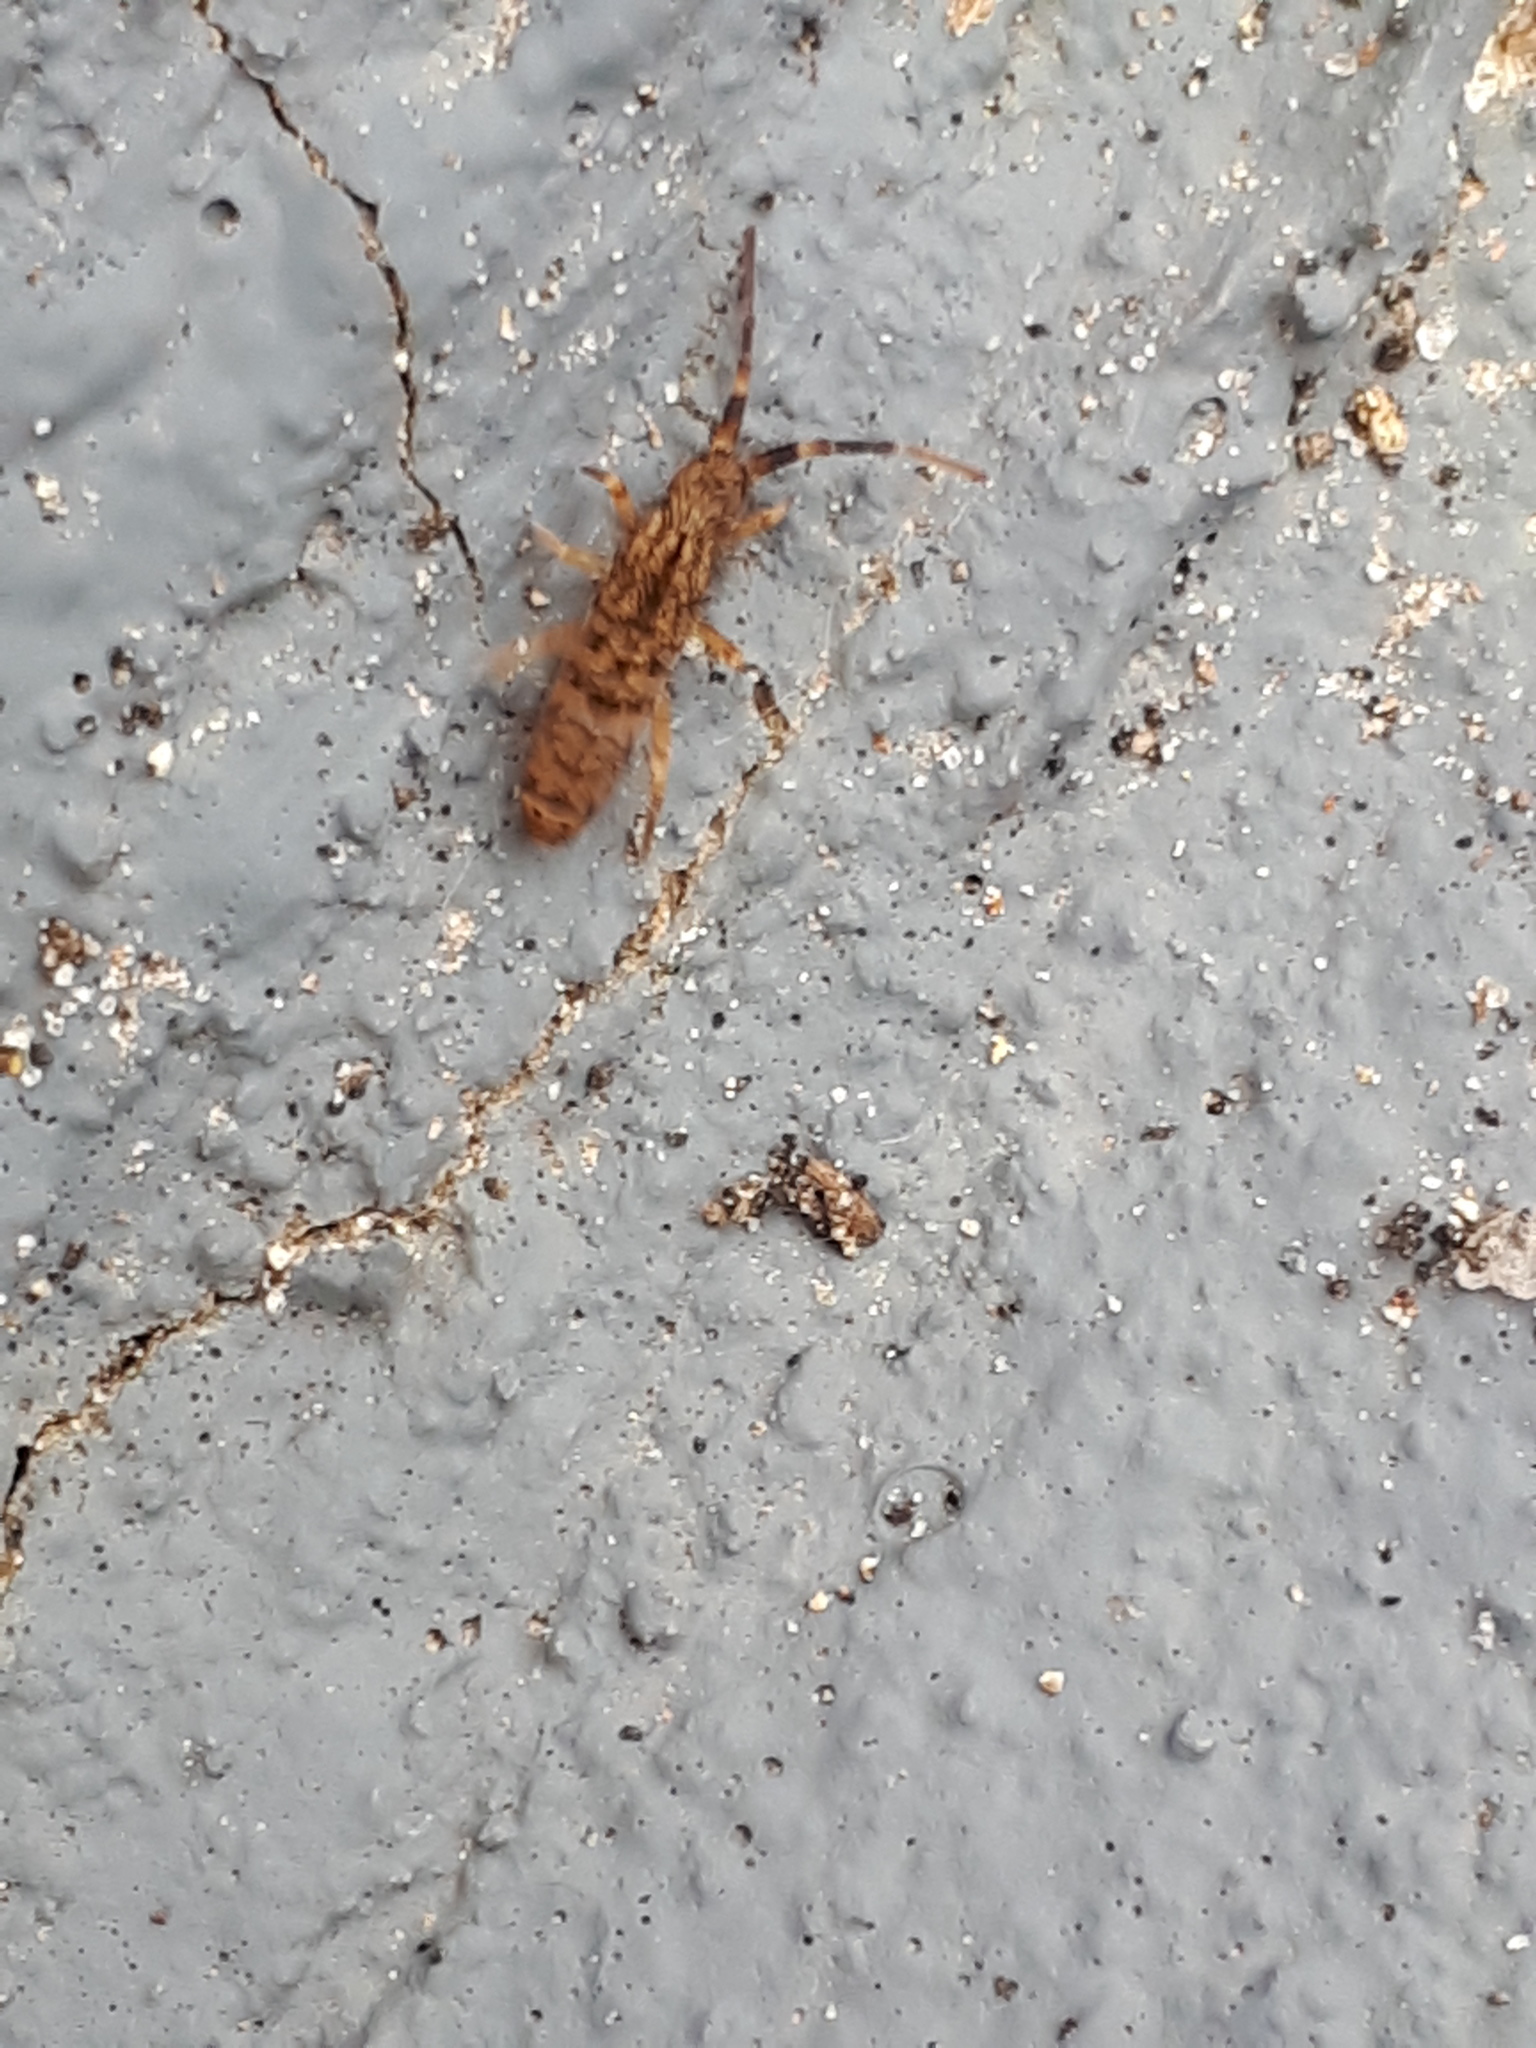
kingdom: Animalia
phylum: Arthropoda
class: Collembola
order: Entomobryomorpha
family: Orchesellidae
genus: Orchesella
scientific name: Orchesella villosa
